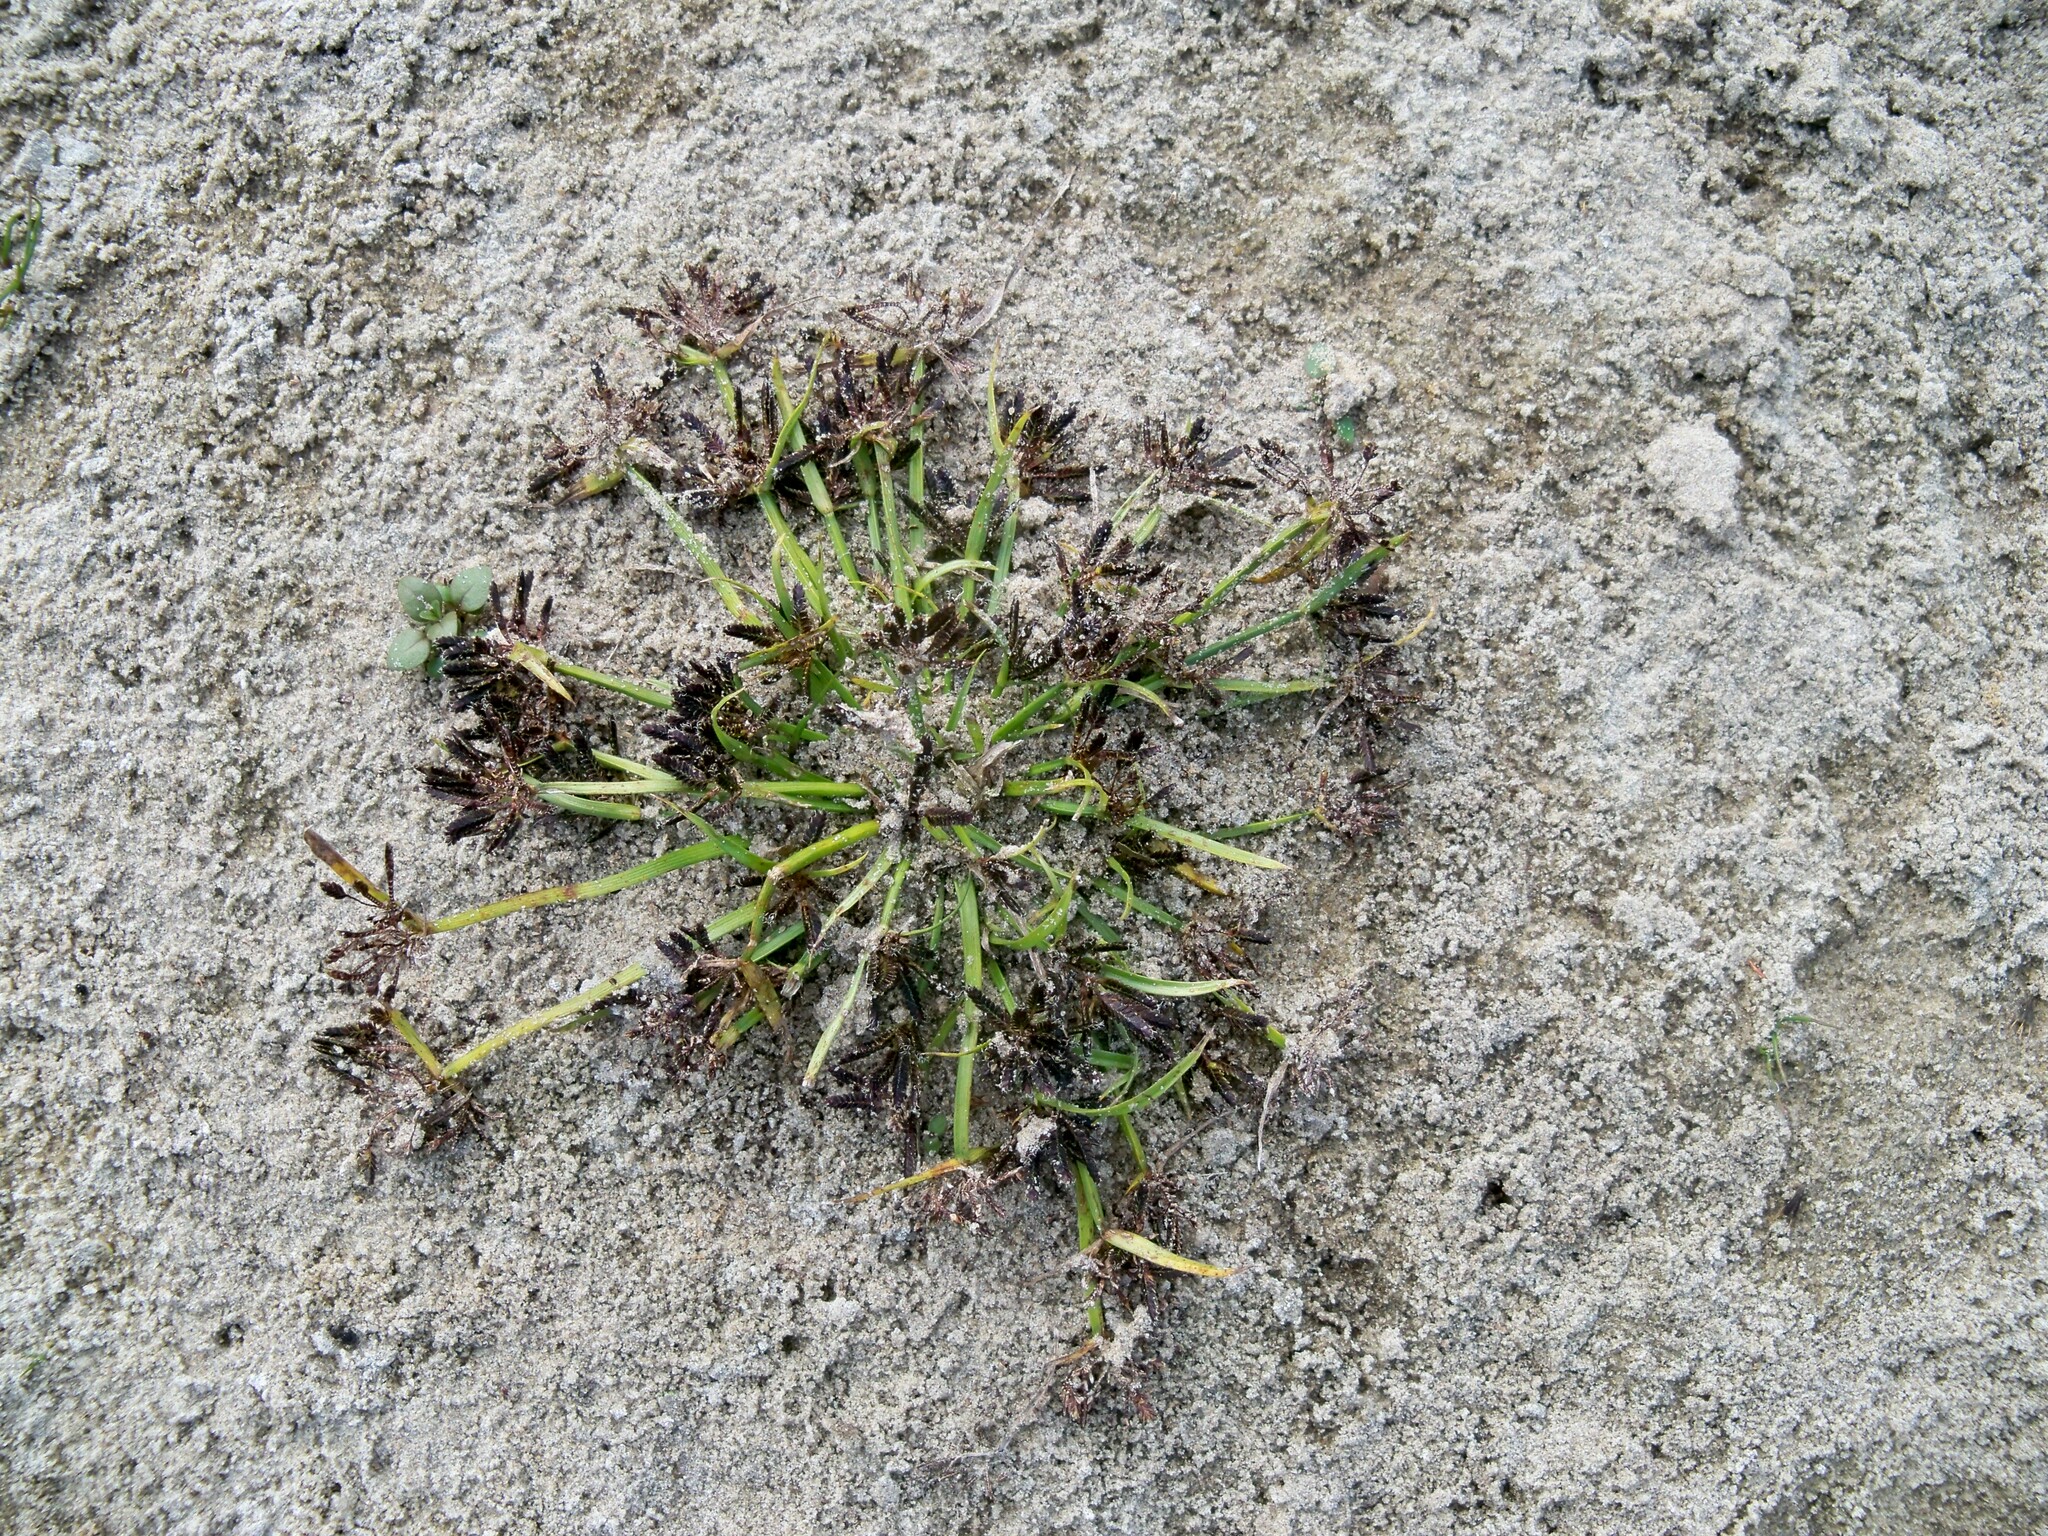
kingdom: Plantae
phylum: Tracheophyta
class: Liliopsida
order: Poales
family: Cyperaceae
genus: Cyperus
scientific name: Cyperus fuscus
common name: Brown galingale
